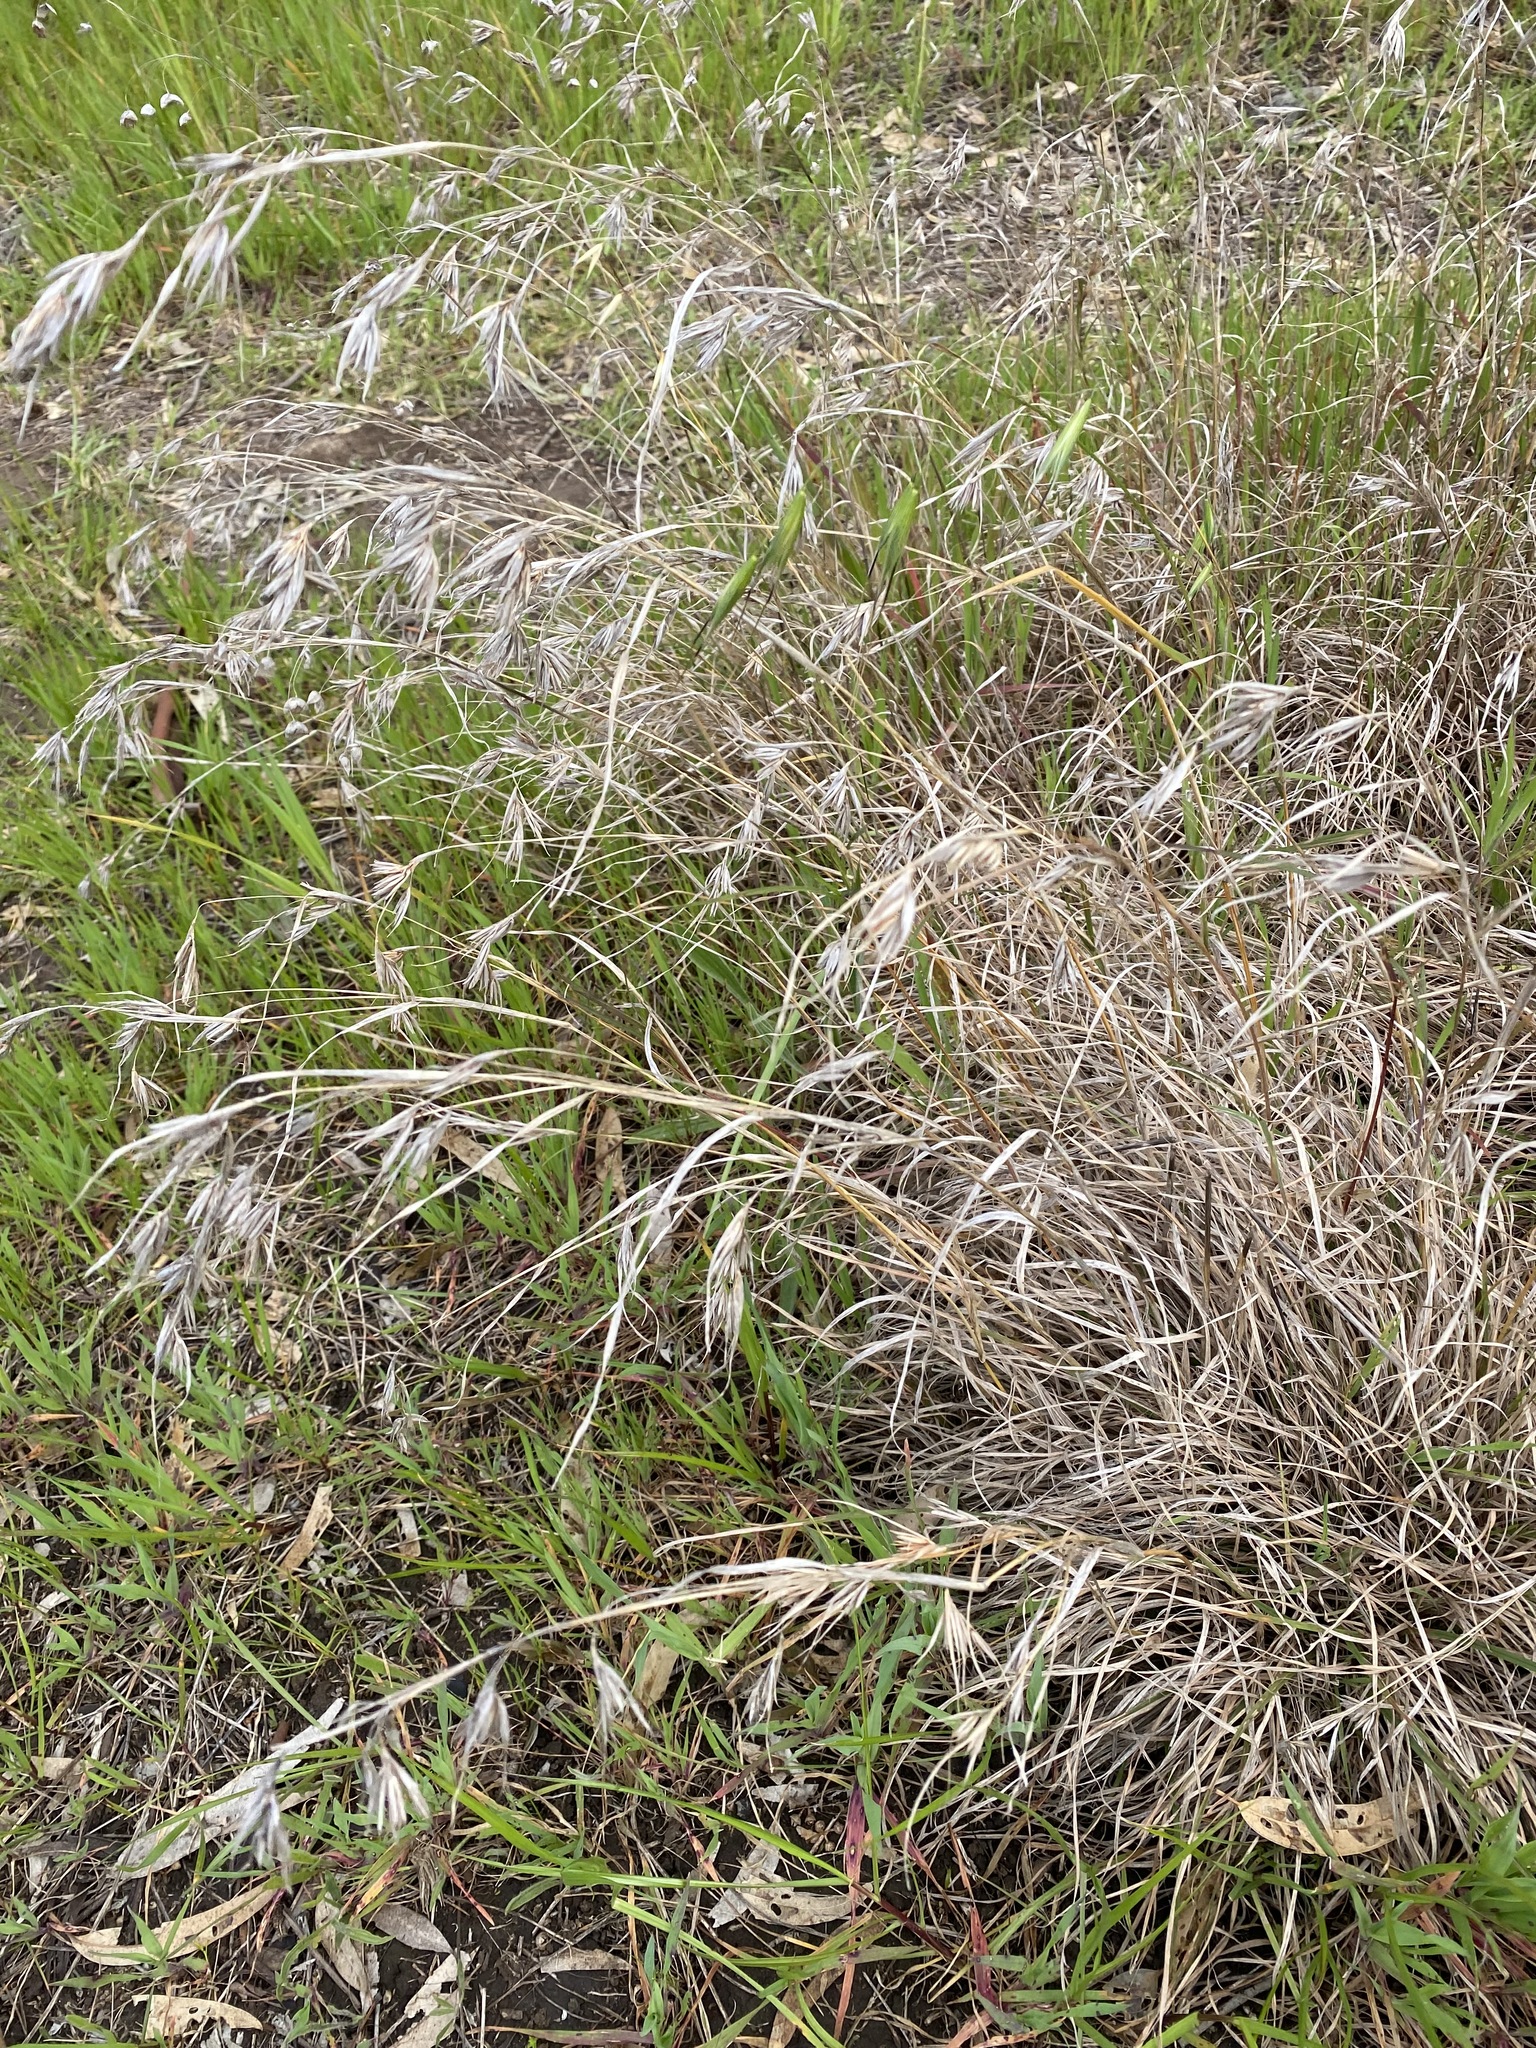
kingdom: Plantae
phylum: Tracheophyta
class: Liliopsida
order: Poales
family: Poaceae
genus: Themeda
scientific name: Themeda triandra
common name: Kangaroo grass
